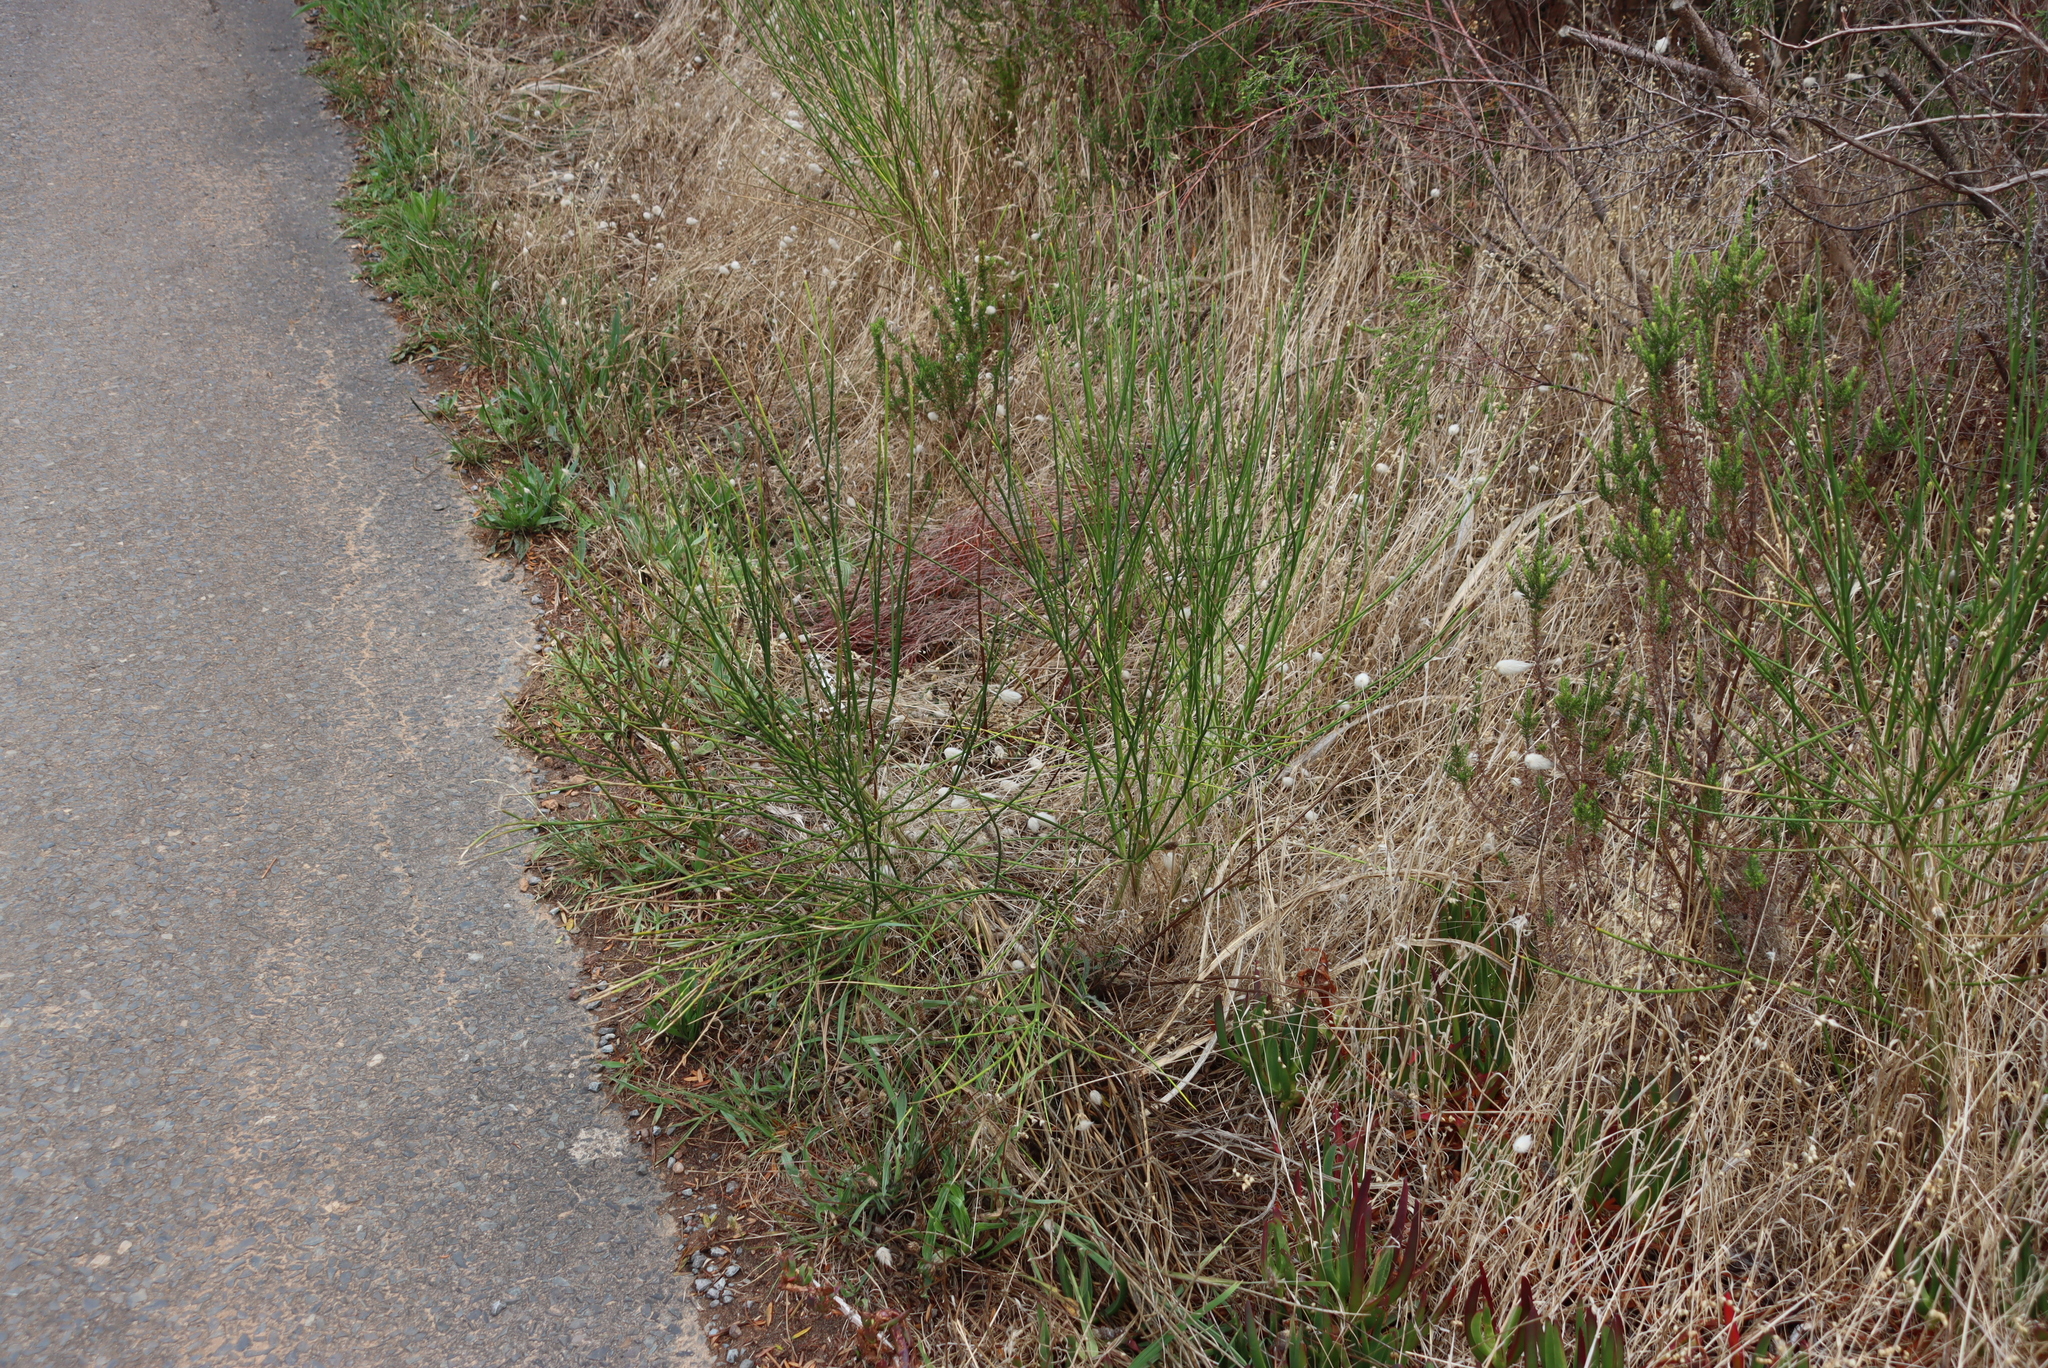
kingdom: Plantae
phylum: Tracheophyta
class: Magnoliopsida
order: Fabales
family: Fabaceae
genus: Spartium
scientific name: Spartium junceum
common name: Spanish broom
